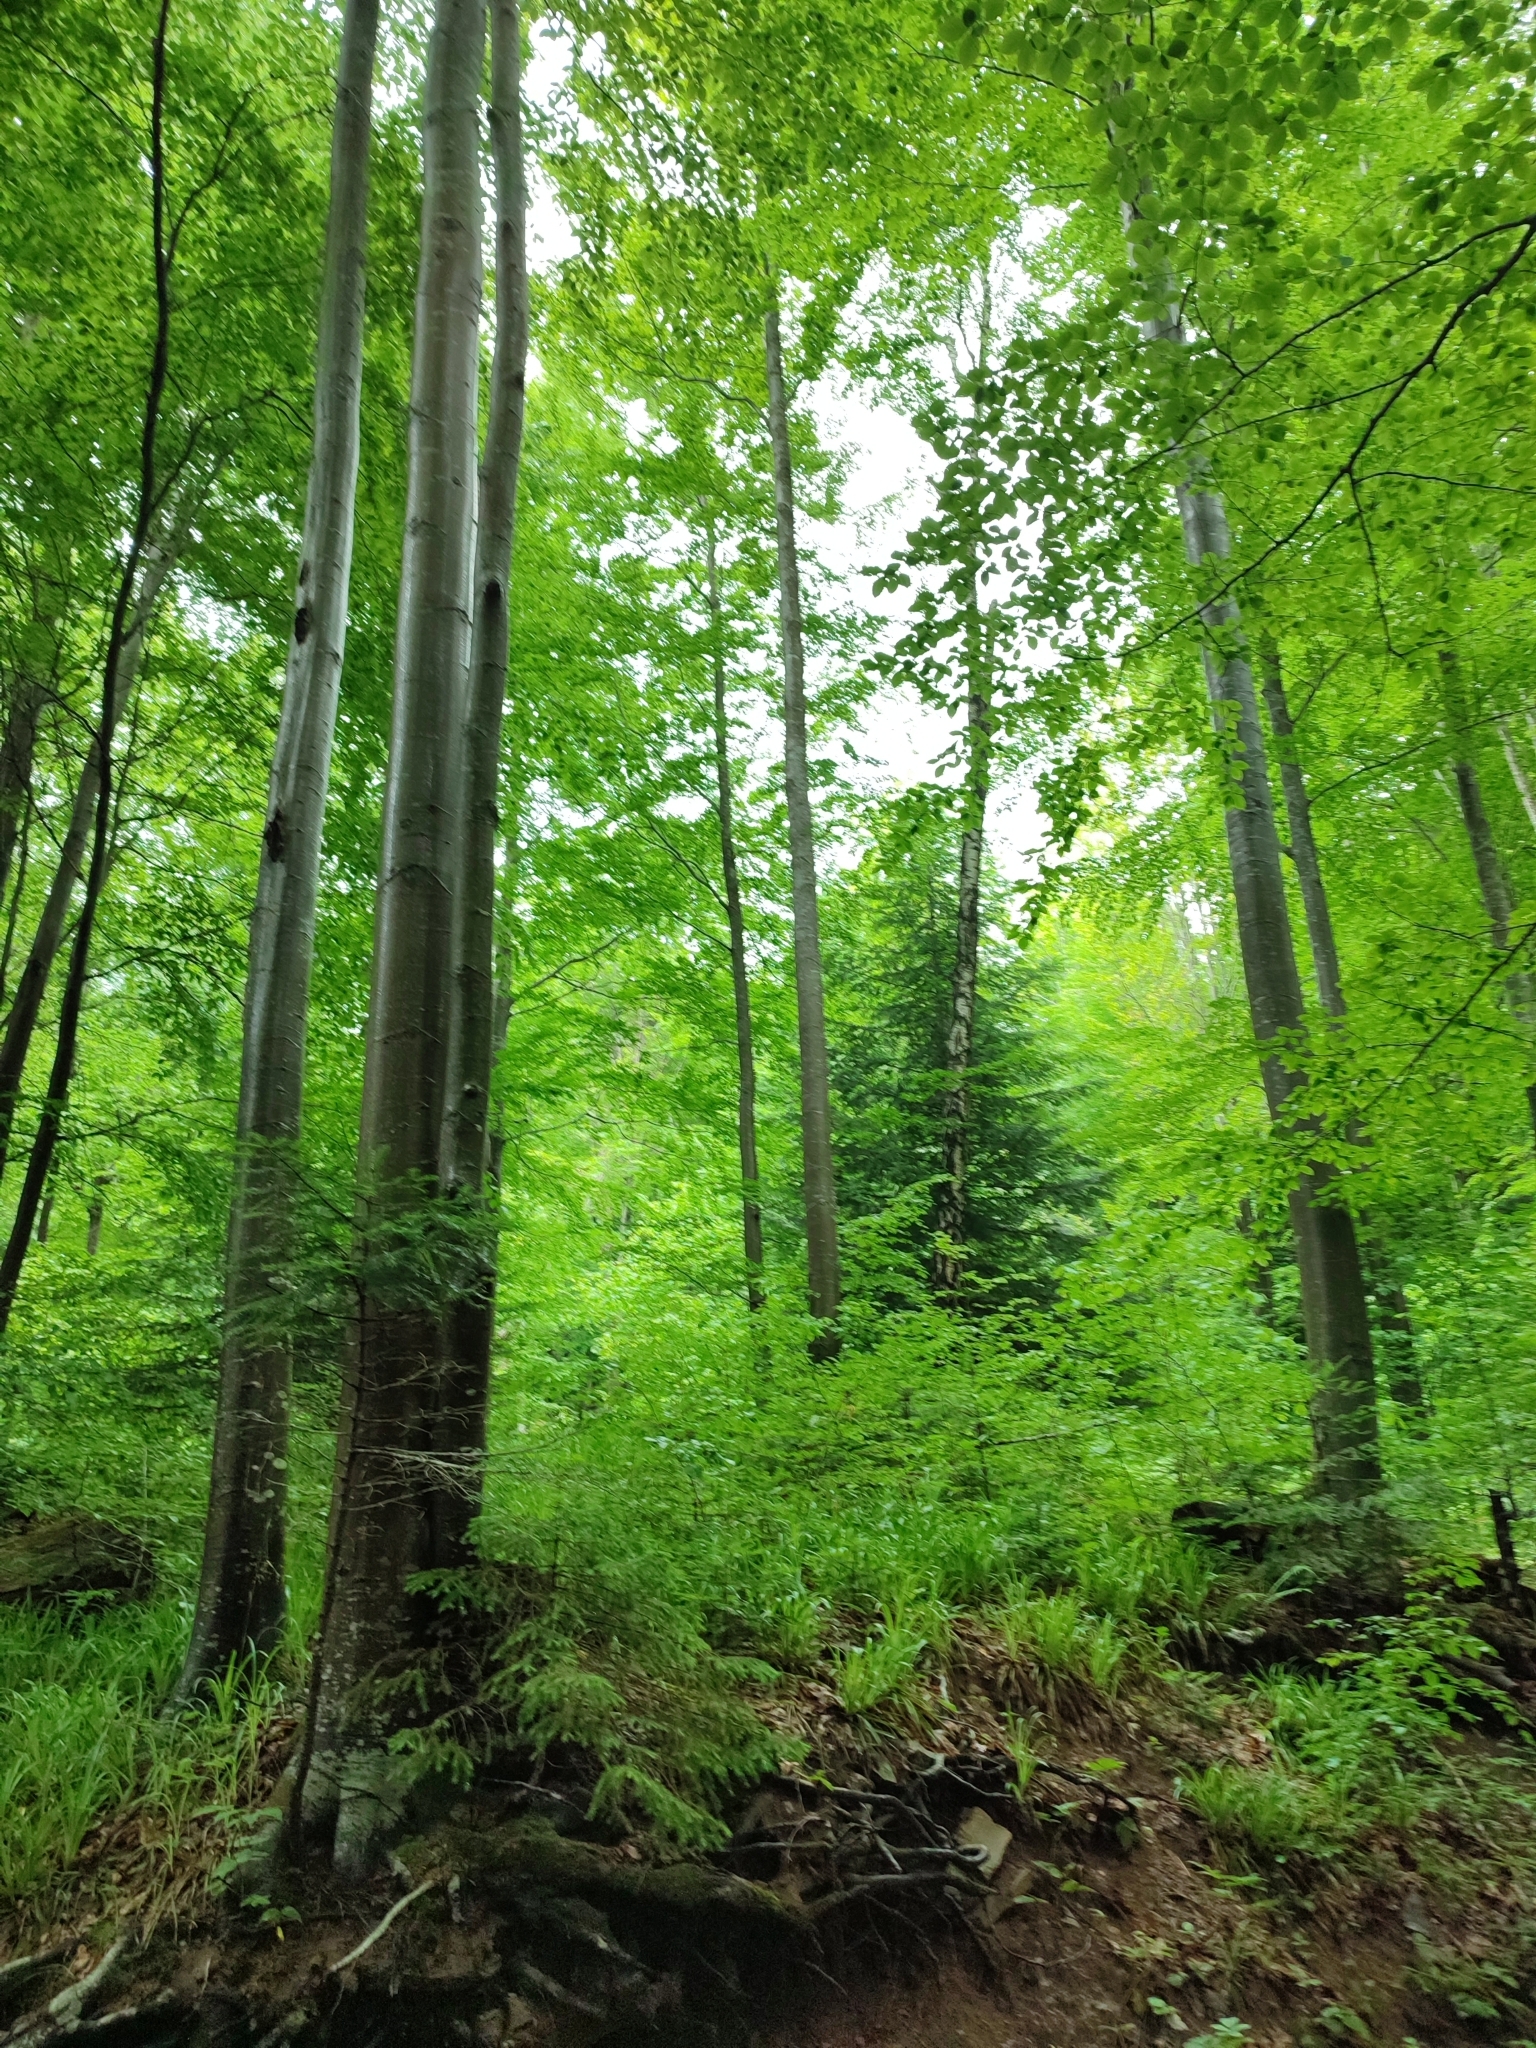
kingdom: Plantae
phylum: Tracheophyta
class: Magnoliopsida
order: Fagales
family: Fagaceae
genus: Fagus
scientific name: Fagus sylvatica
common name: Beech
